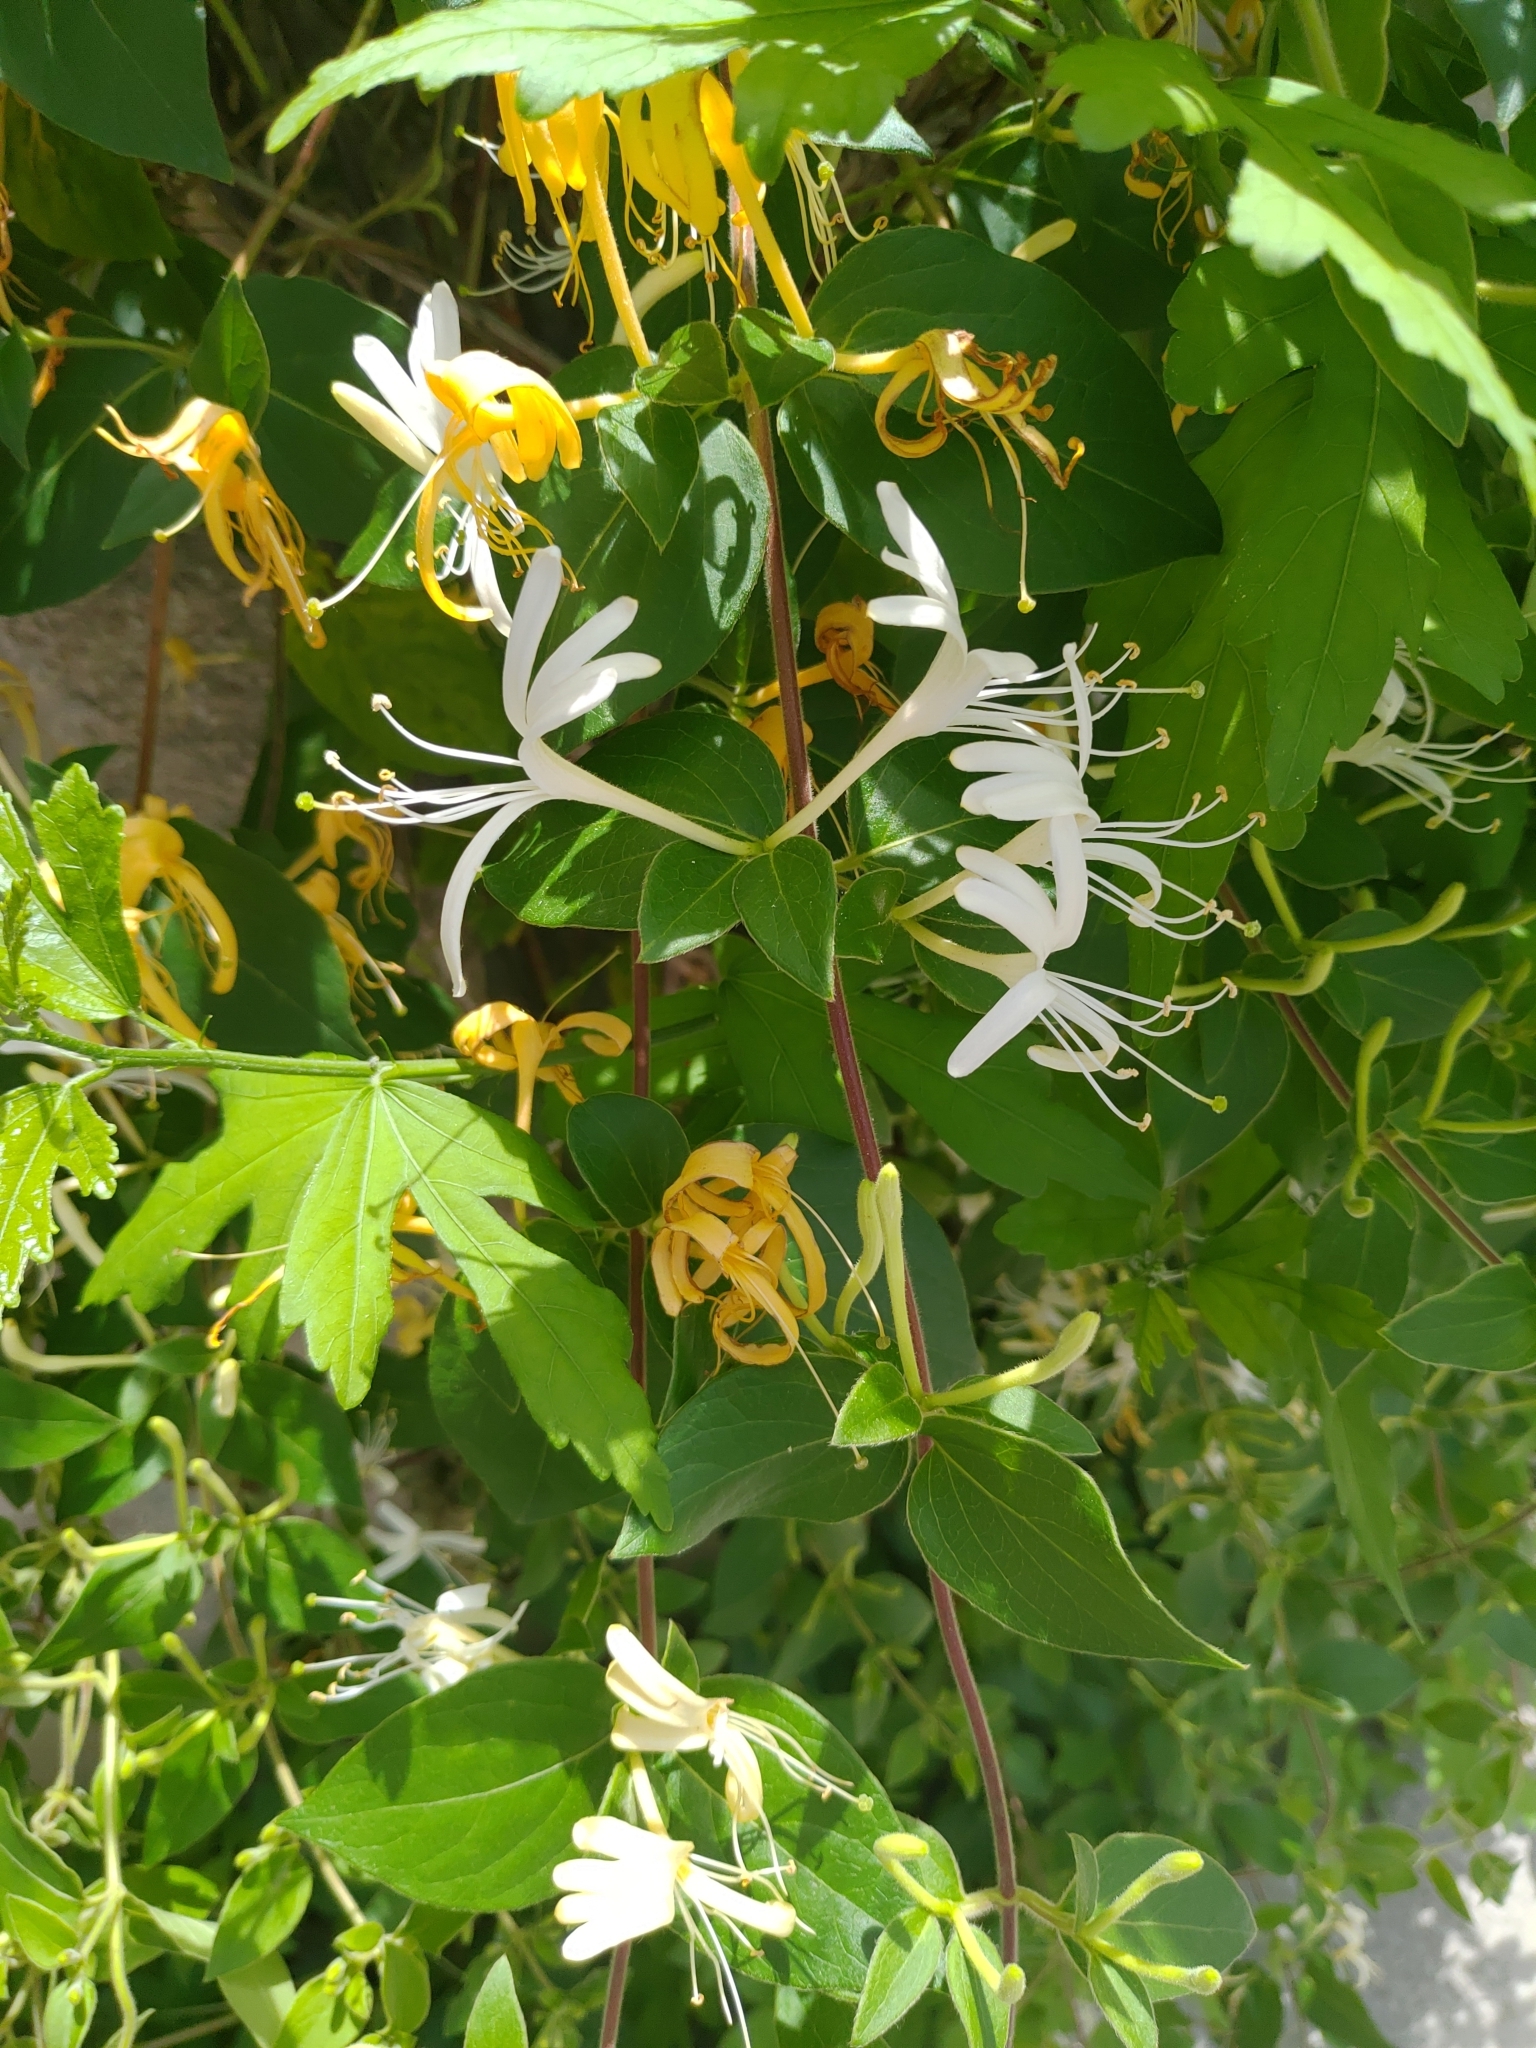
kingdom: Plantae
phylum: Tracheophyta
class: Magnoliopsida
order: Dipsacales
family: Caprifoliaceae
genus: Lonicera
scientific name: Lonicera japonica
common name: Japanese honeysuckle
